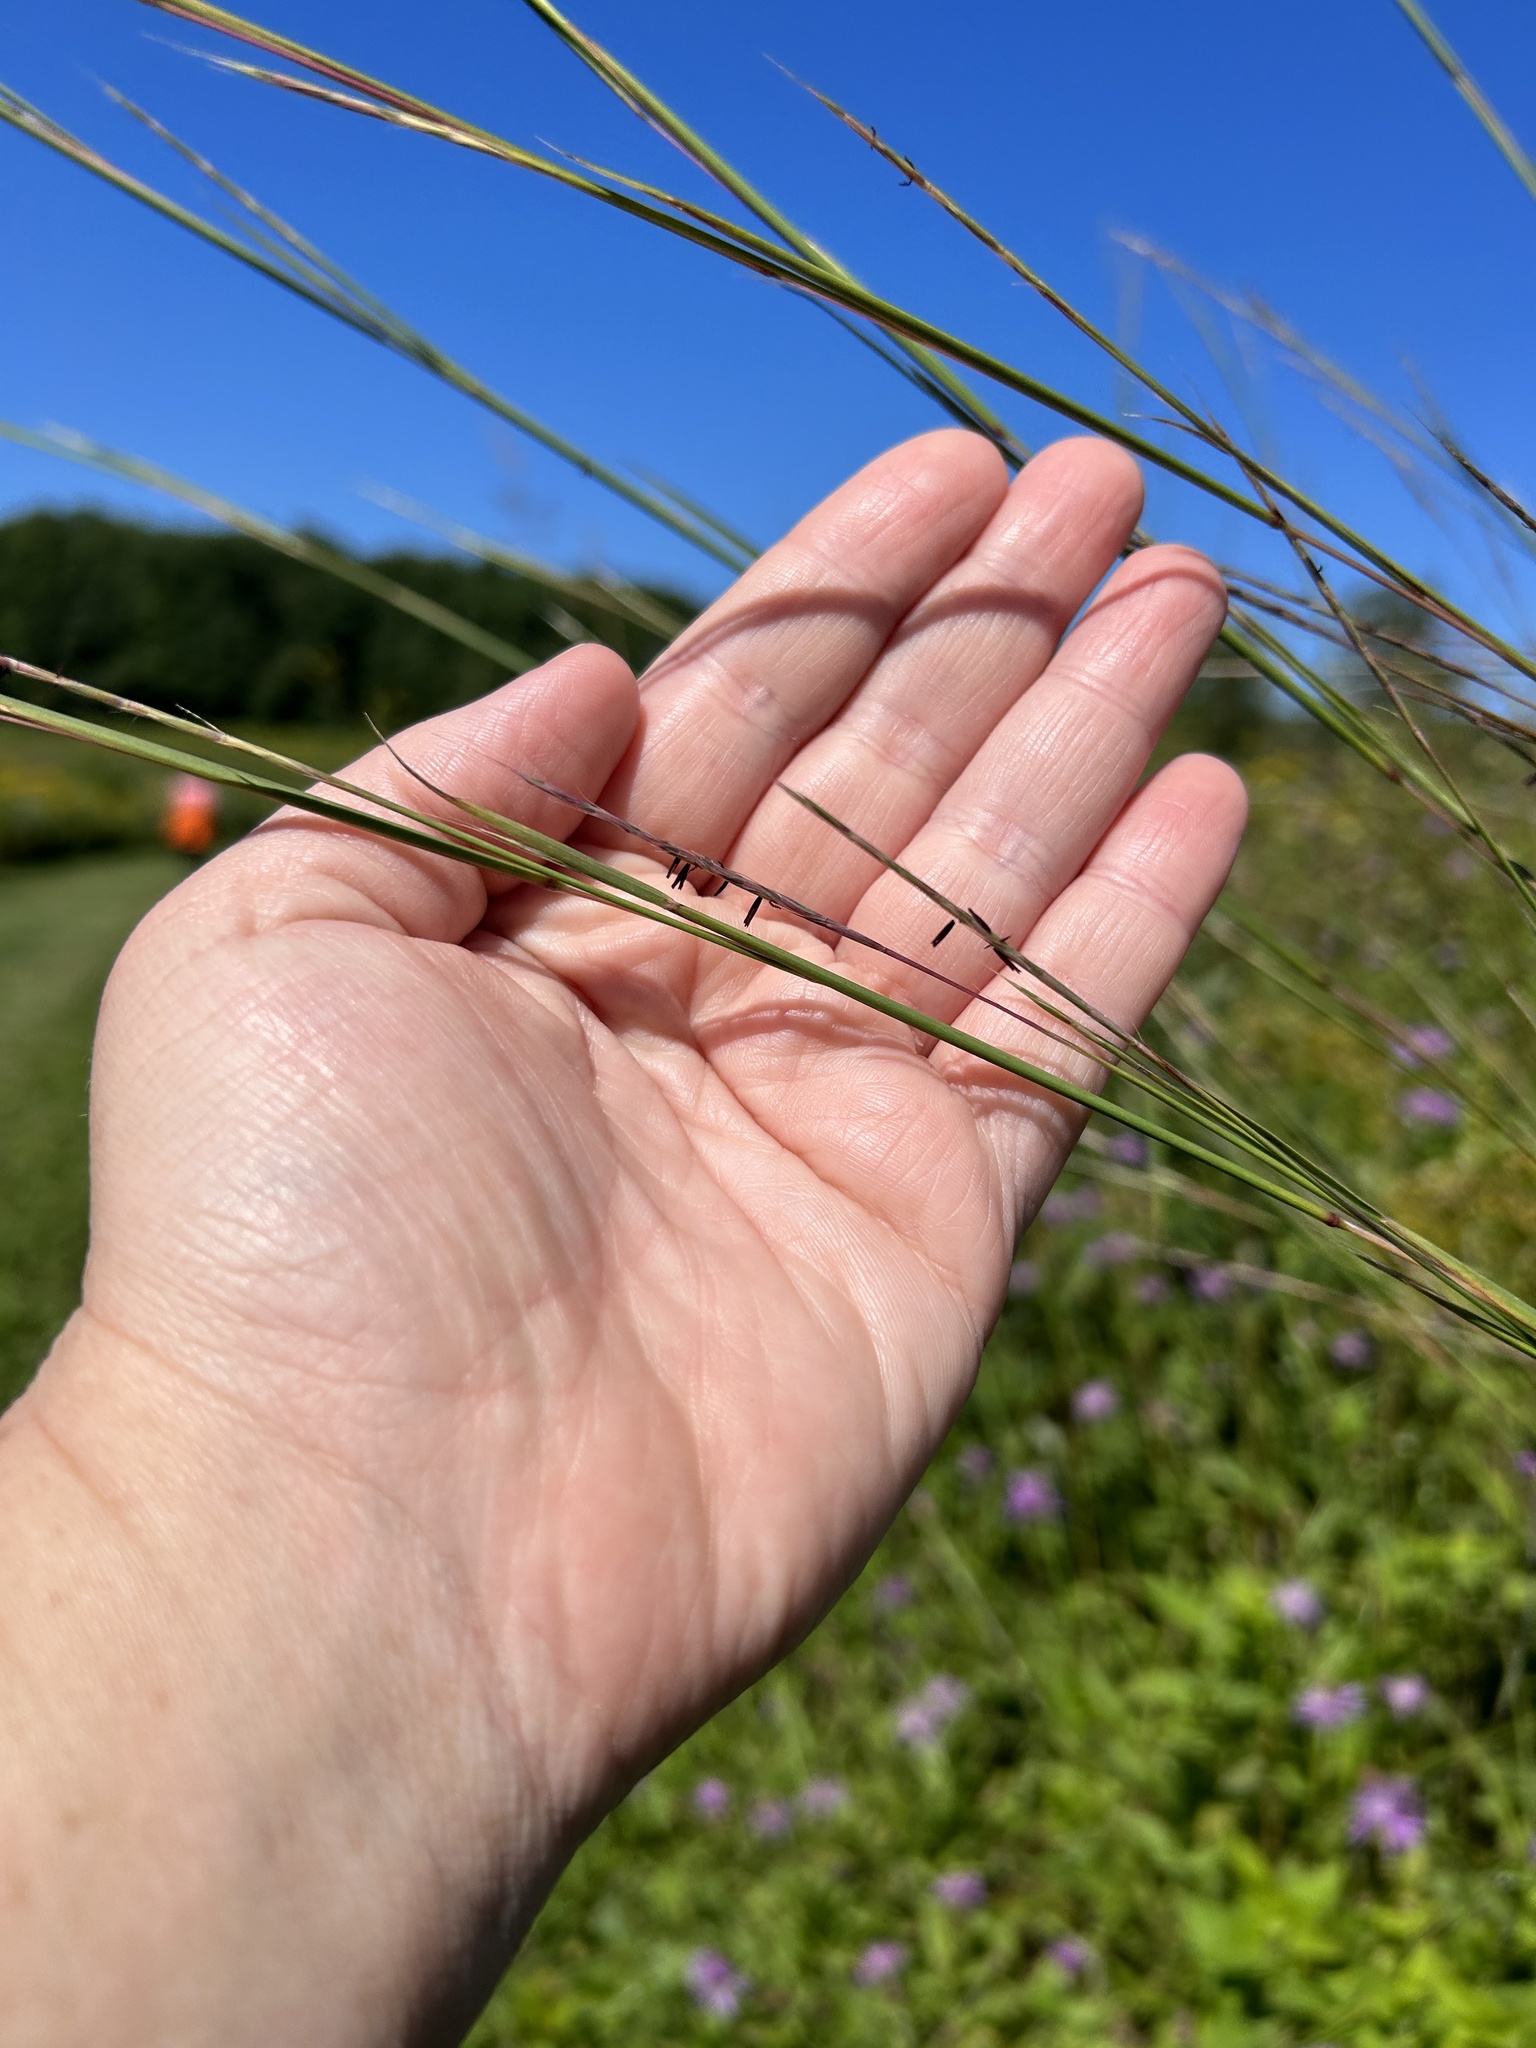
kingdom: Plantae
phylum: Tracheophyta
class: Liliopsida
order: Poales
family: Poaceae
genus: Schizachyrium
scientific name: Schizachyrium scoparium
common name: Little bluestem
